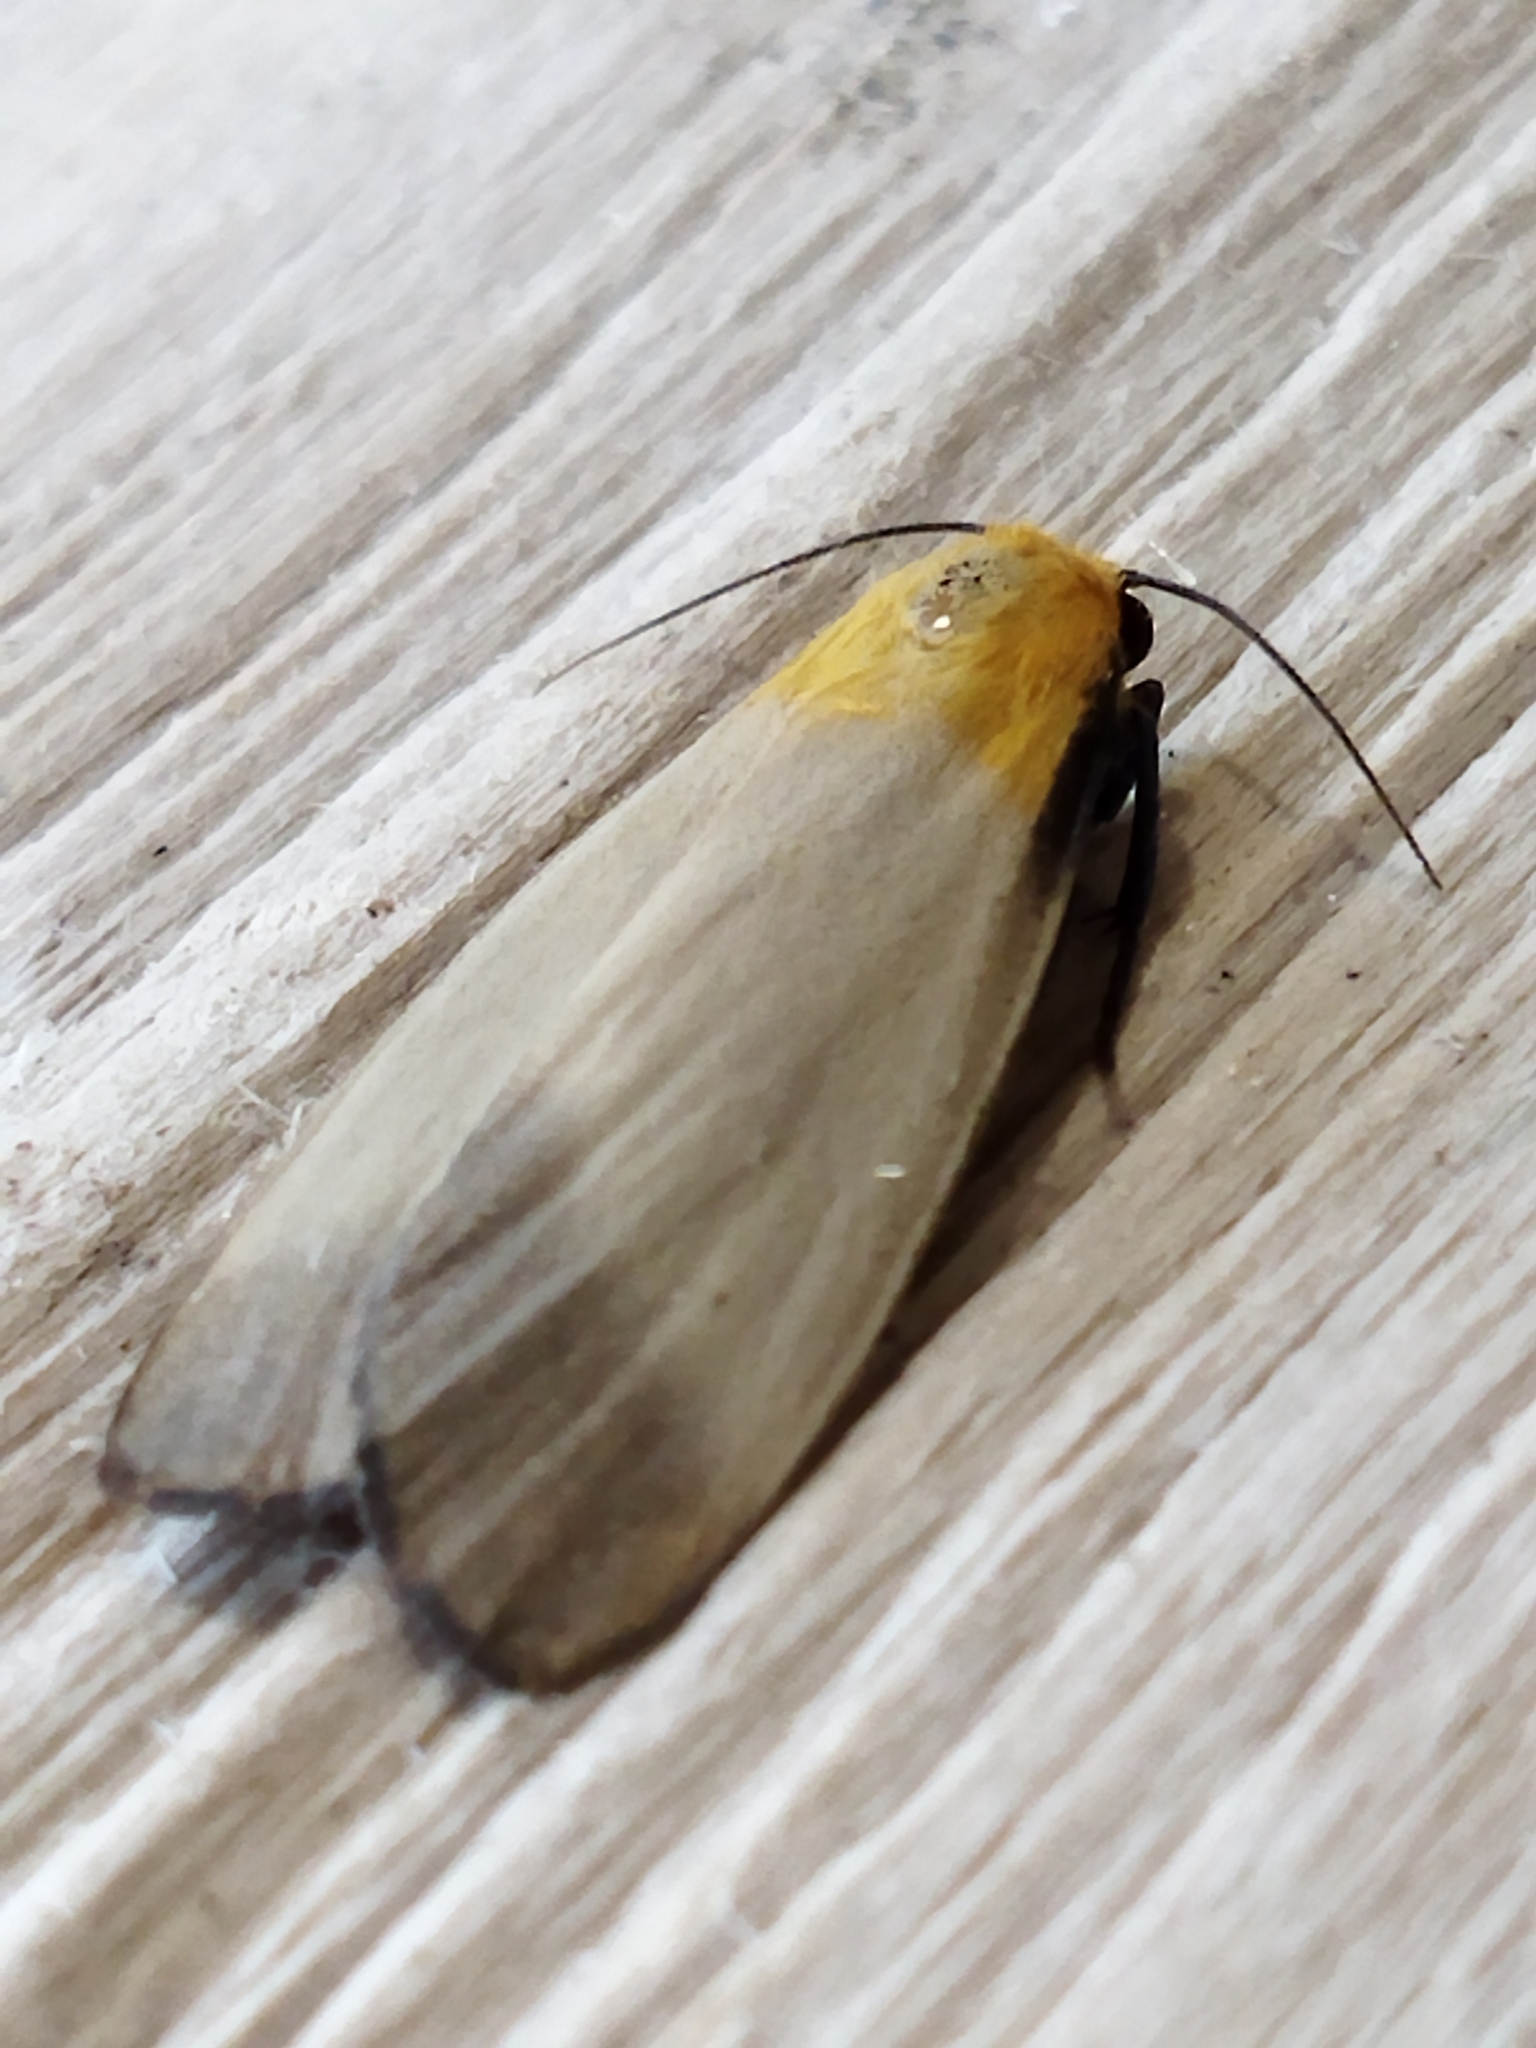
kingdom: Animalia
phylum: Arthropoda
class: Insecta
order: Lepidoptera
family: Erebidae
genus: Lithosia
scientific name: Lithosia quadra
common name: Four-spotted footman
